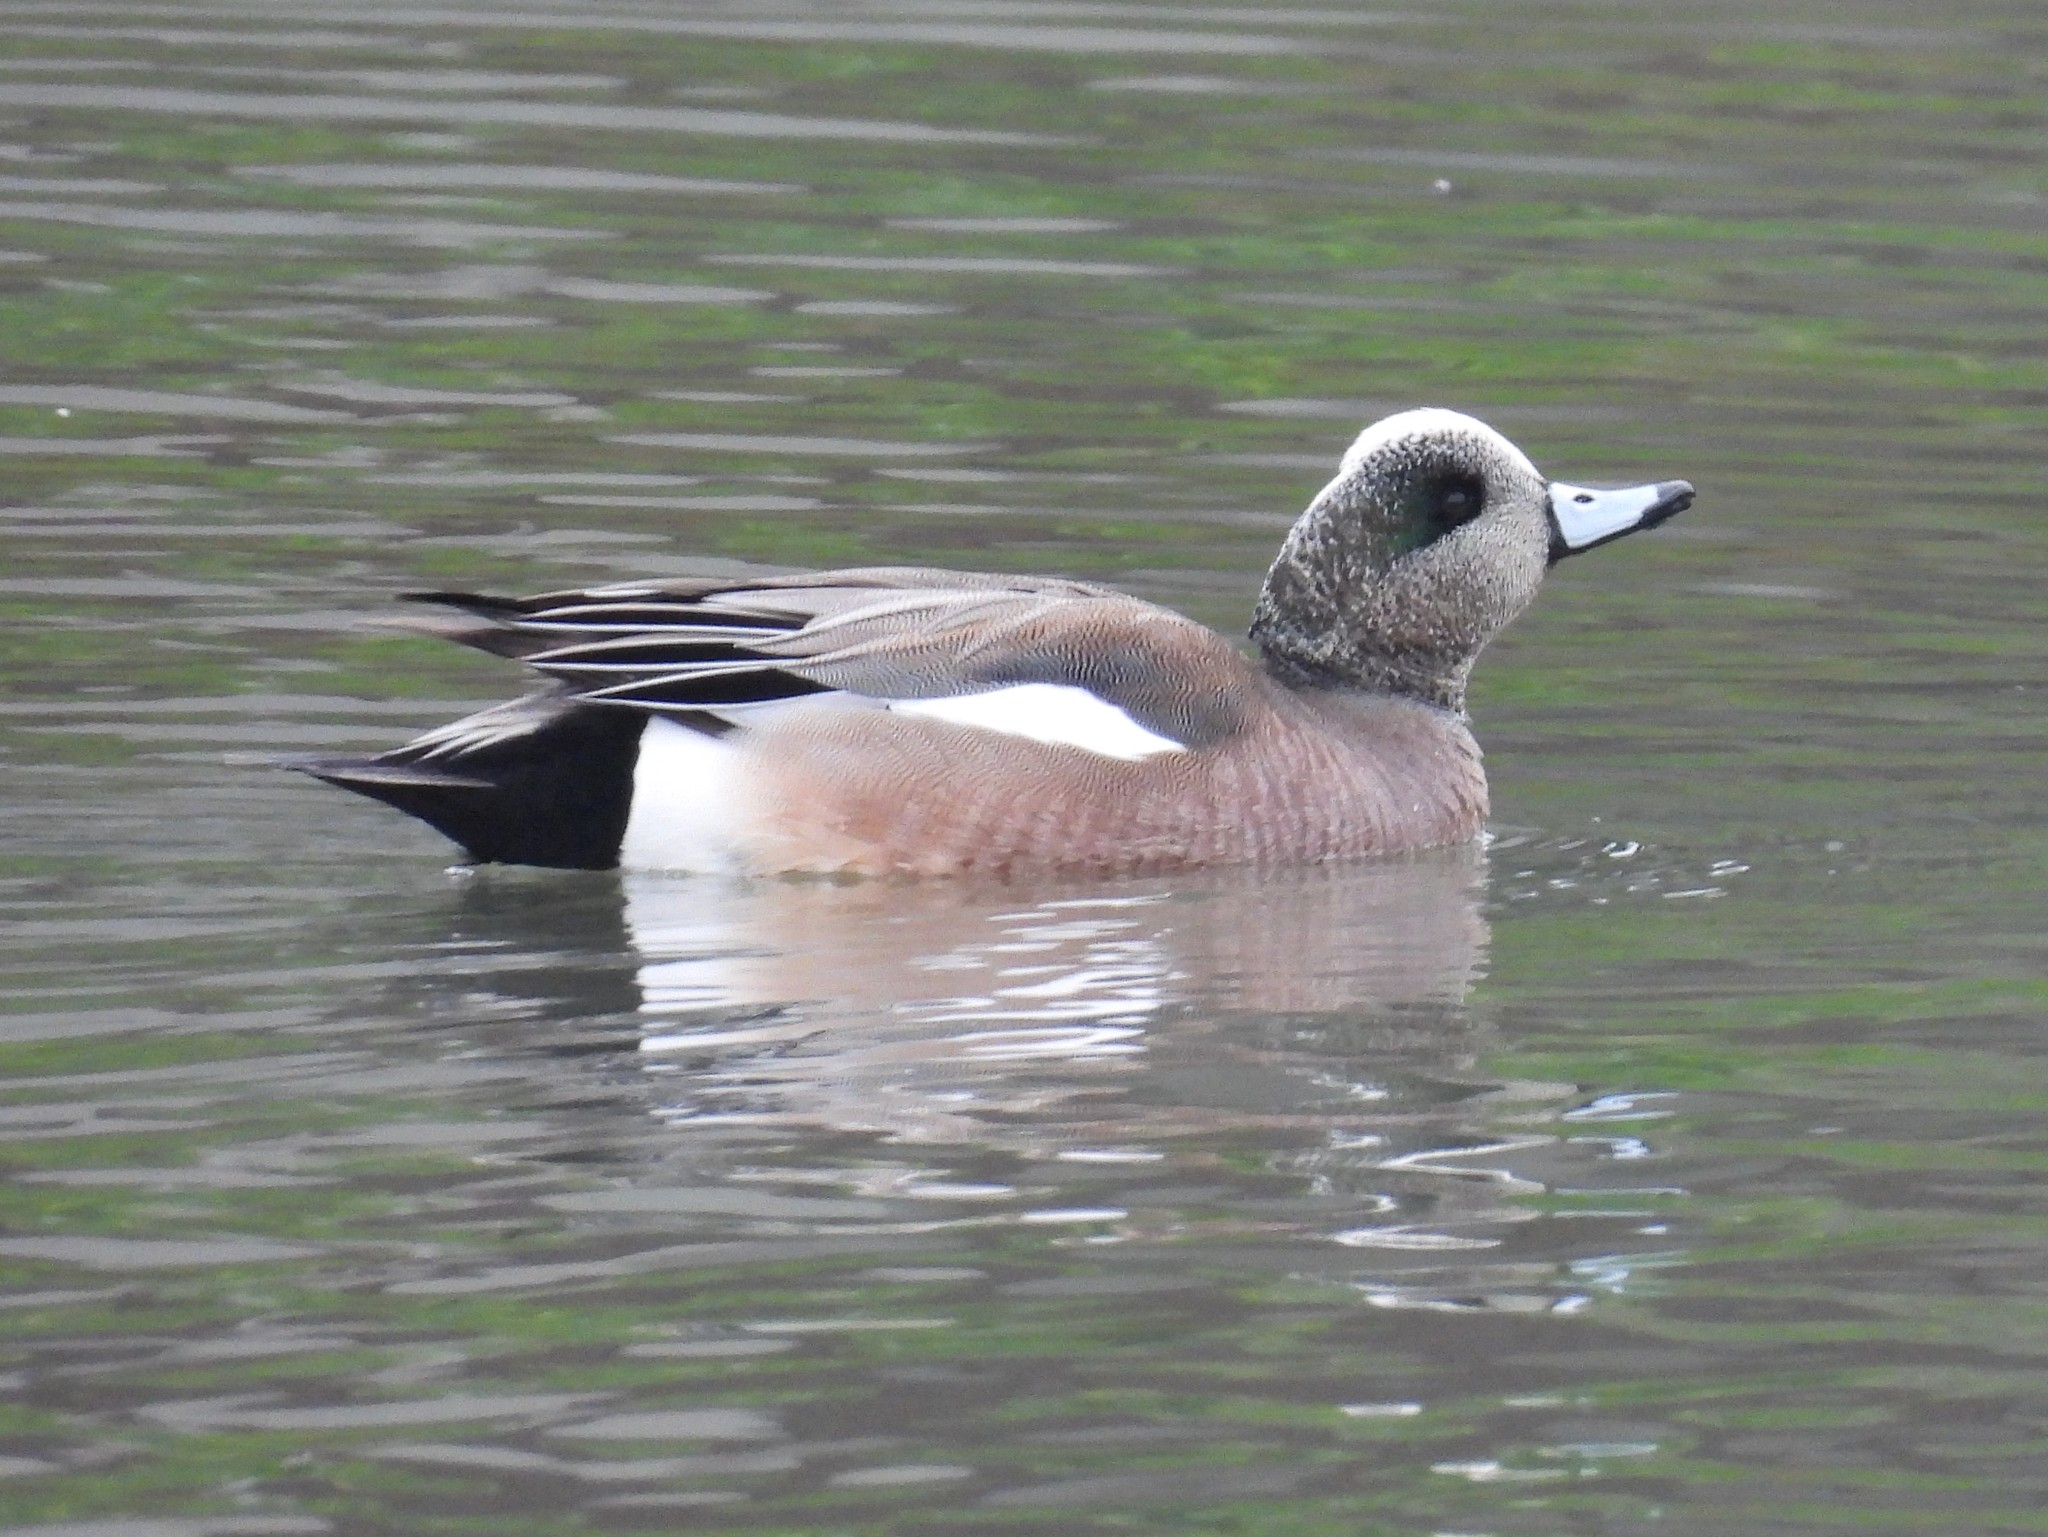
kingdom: Animalia
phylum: Chordata
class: Aves
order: Anseriformes
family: Anatidae
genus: Mareca
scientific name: Mareca americana
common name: American wigeon
